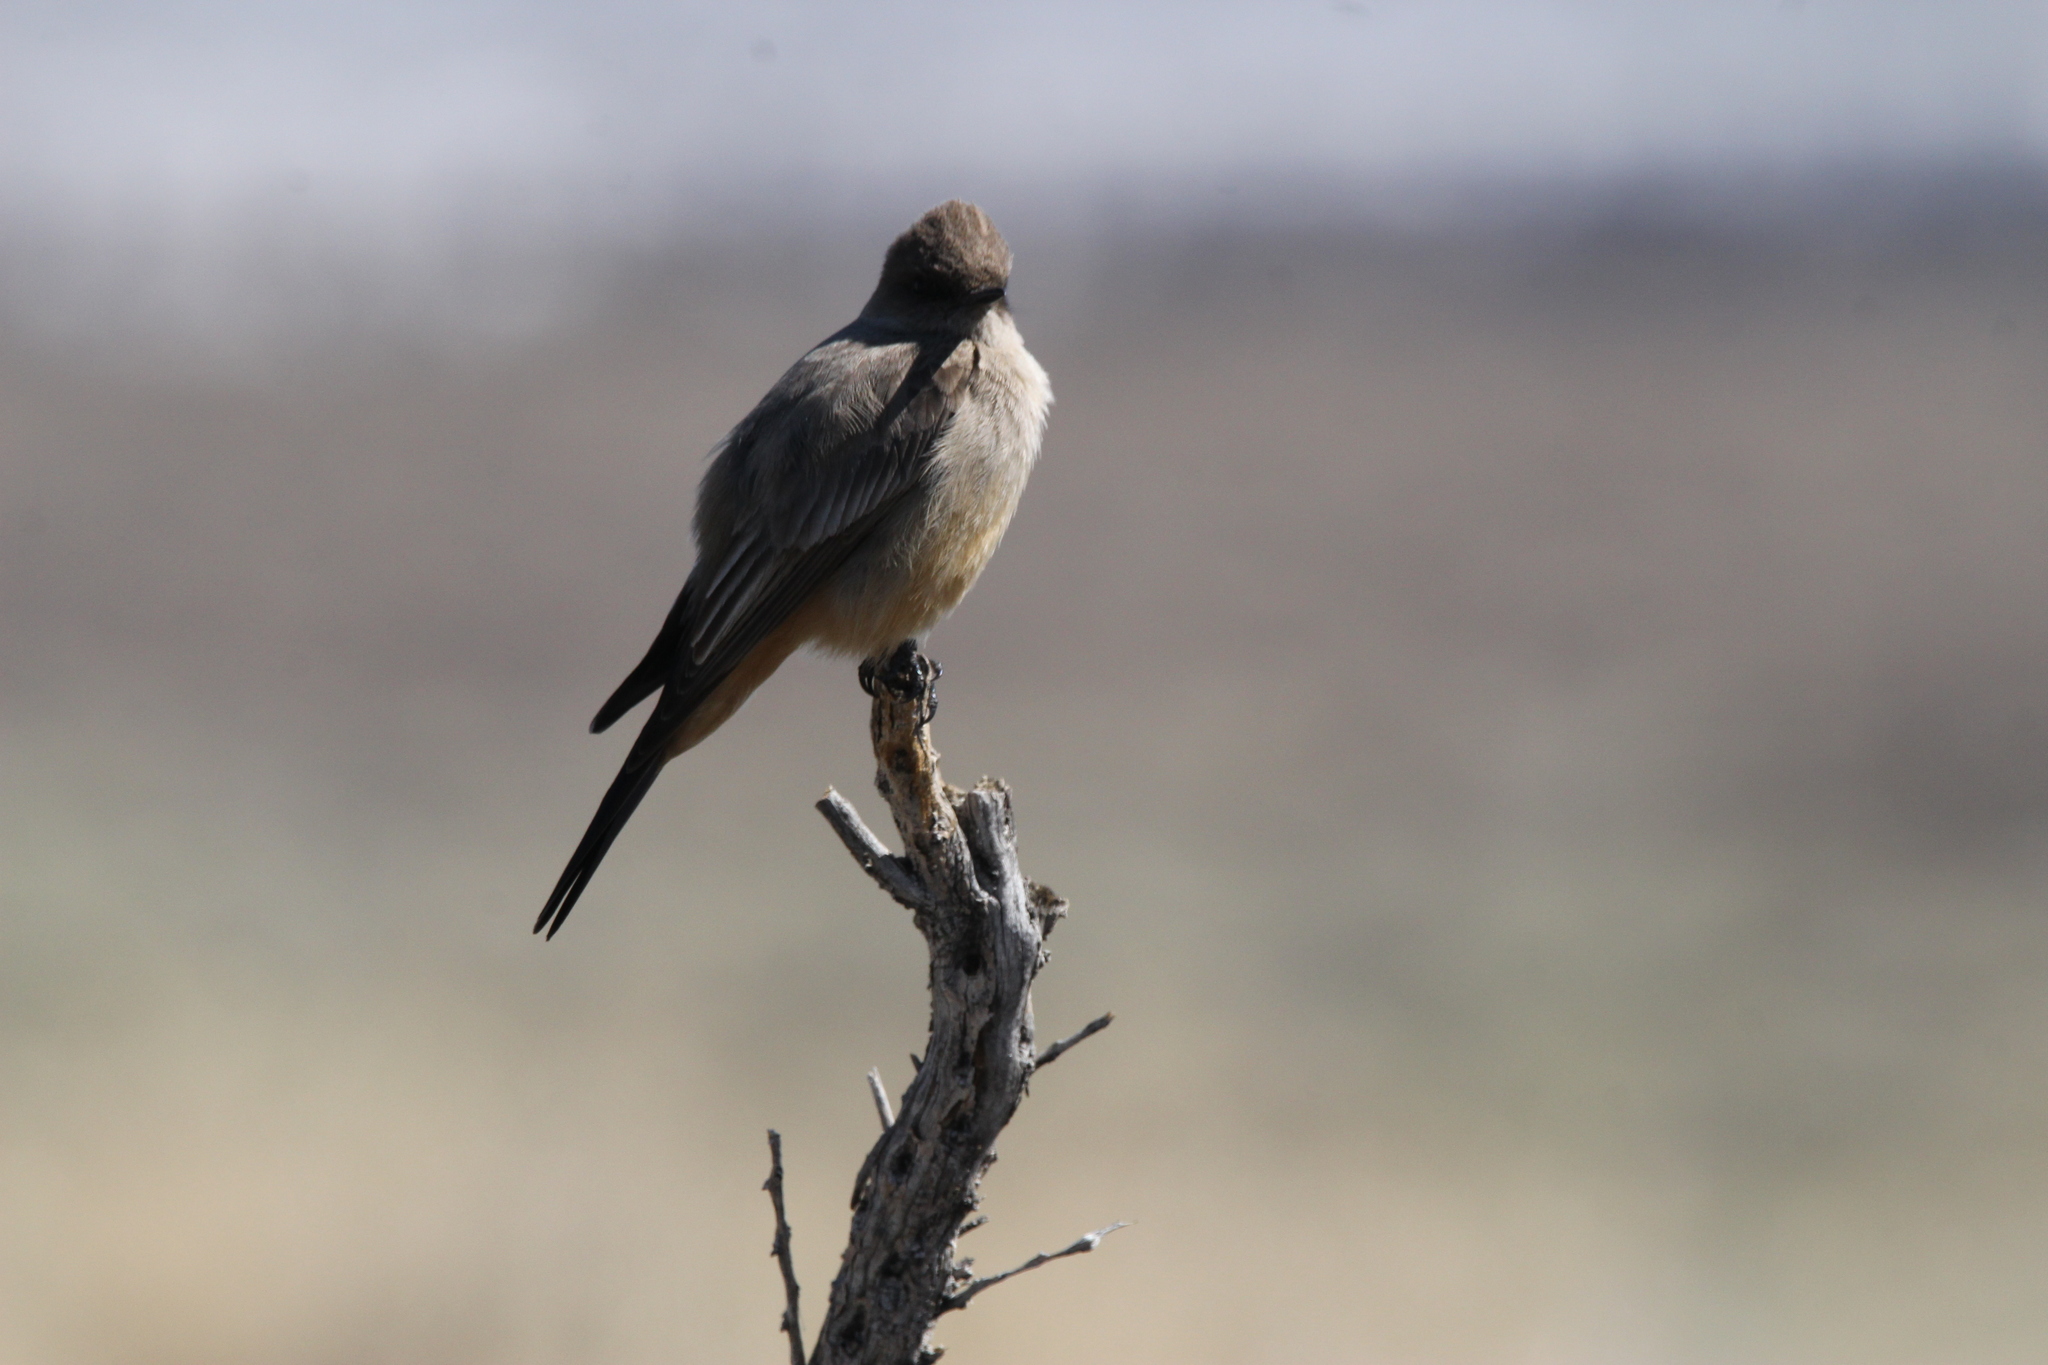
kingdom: Animalia
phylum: Chordata
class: Aves
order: Passeriformes
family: Tyrannidae
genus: Sayornis
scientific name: Sayornis saya
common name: Say's phoebe
